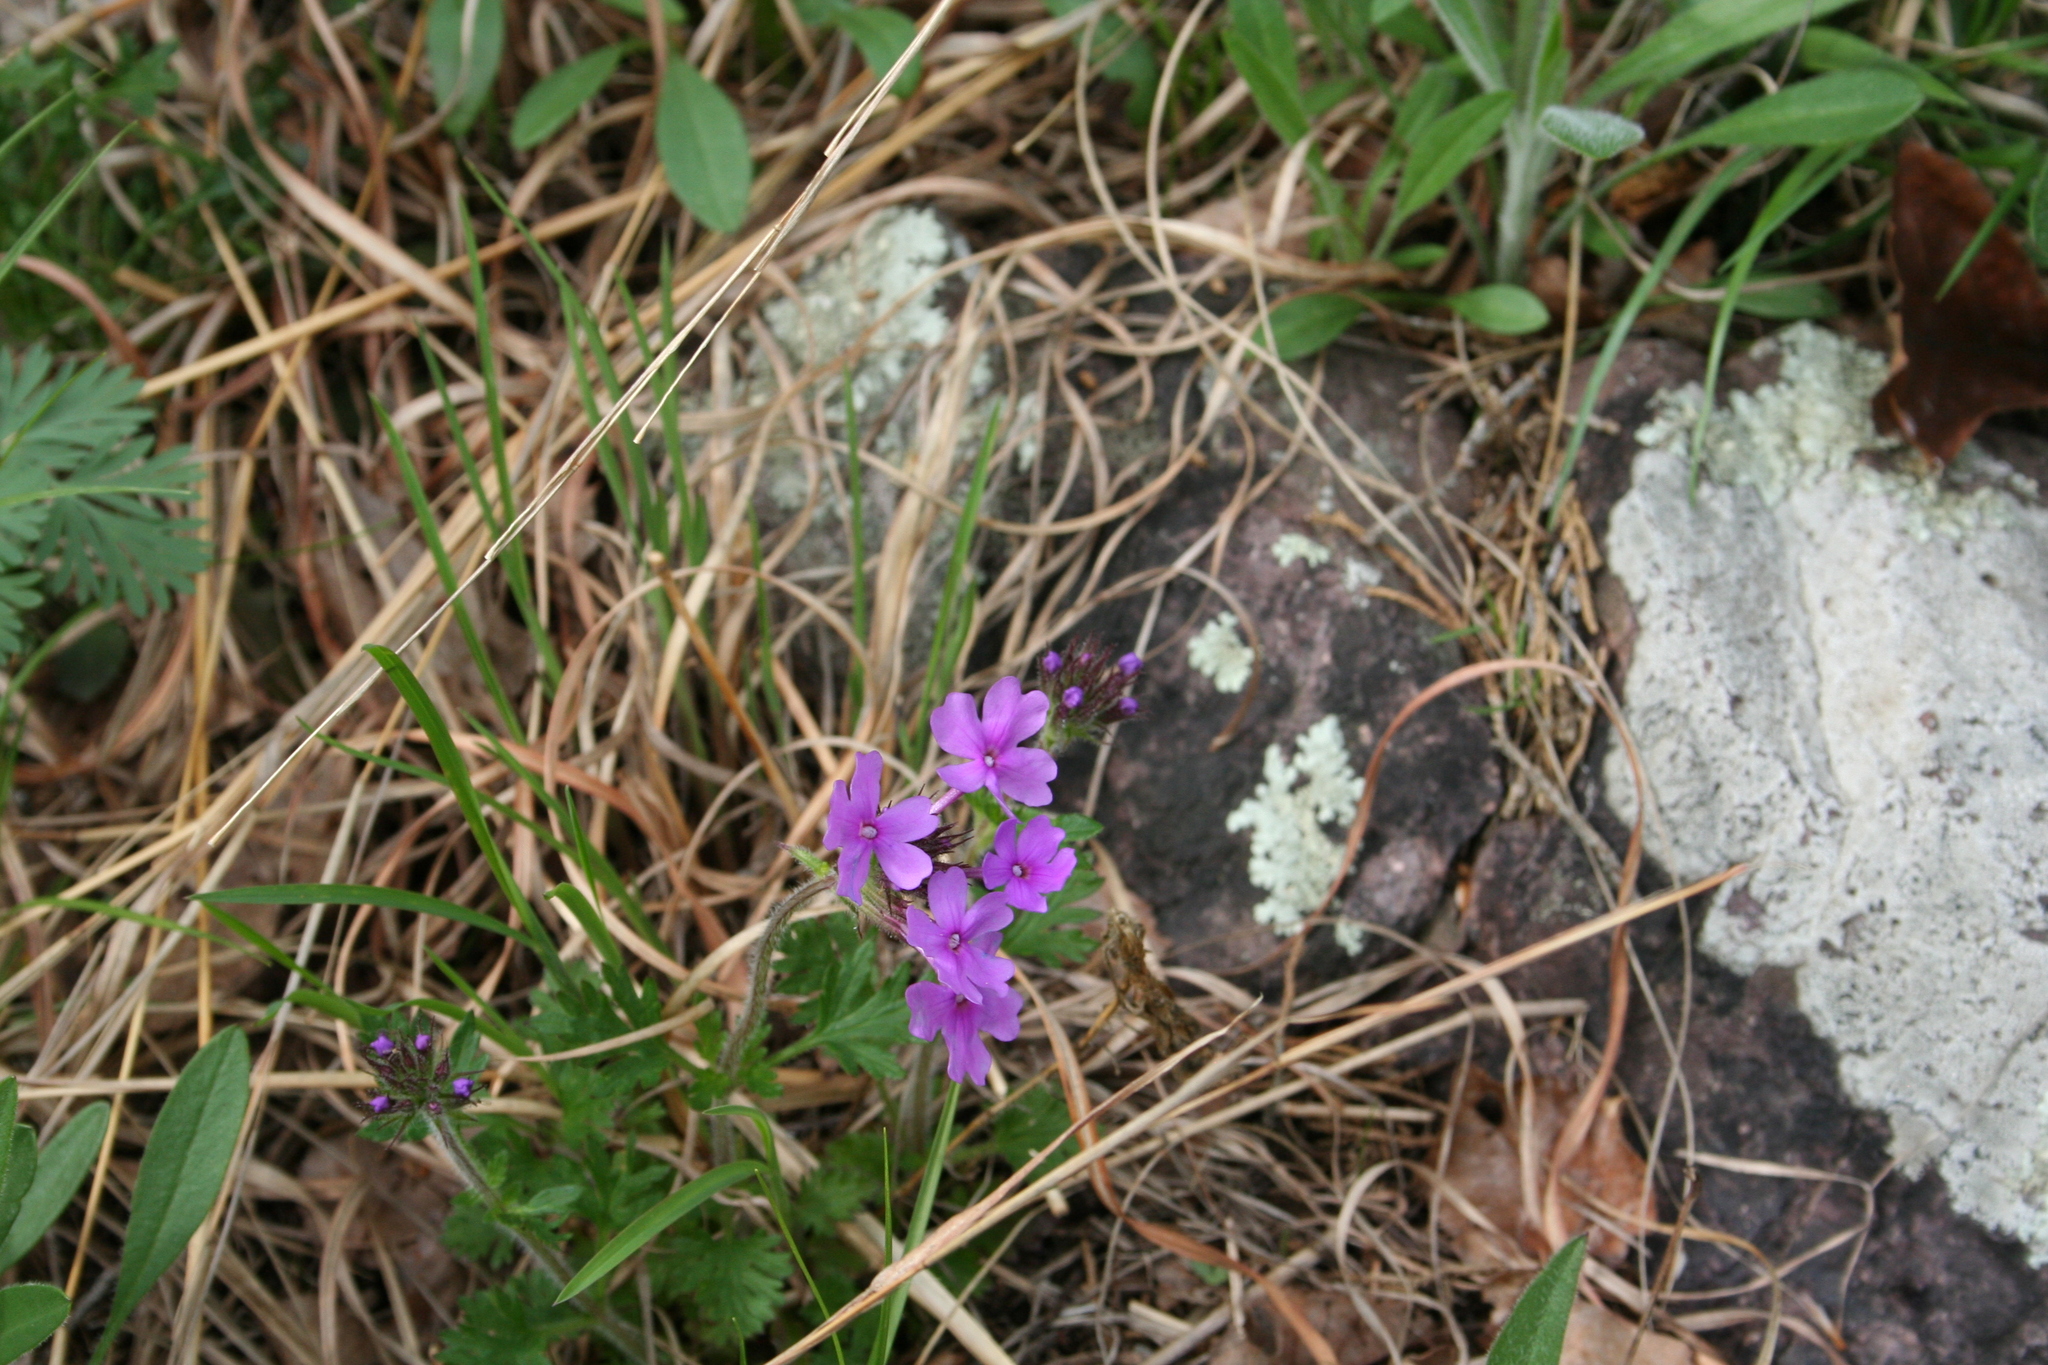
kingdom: Plantae
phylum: Tracheophyta
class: Magnoliopsida
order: Lamiales
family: Verbenaceae
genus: Verbena
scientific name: Verbena canadensis
